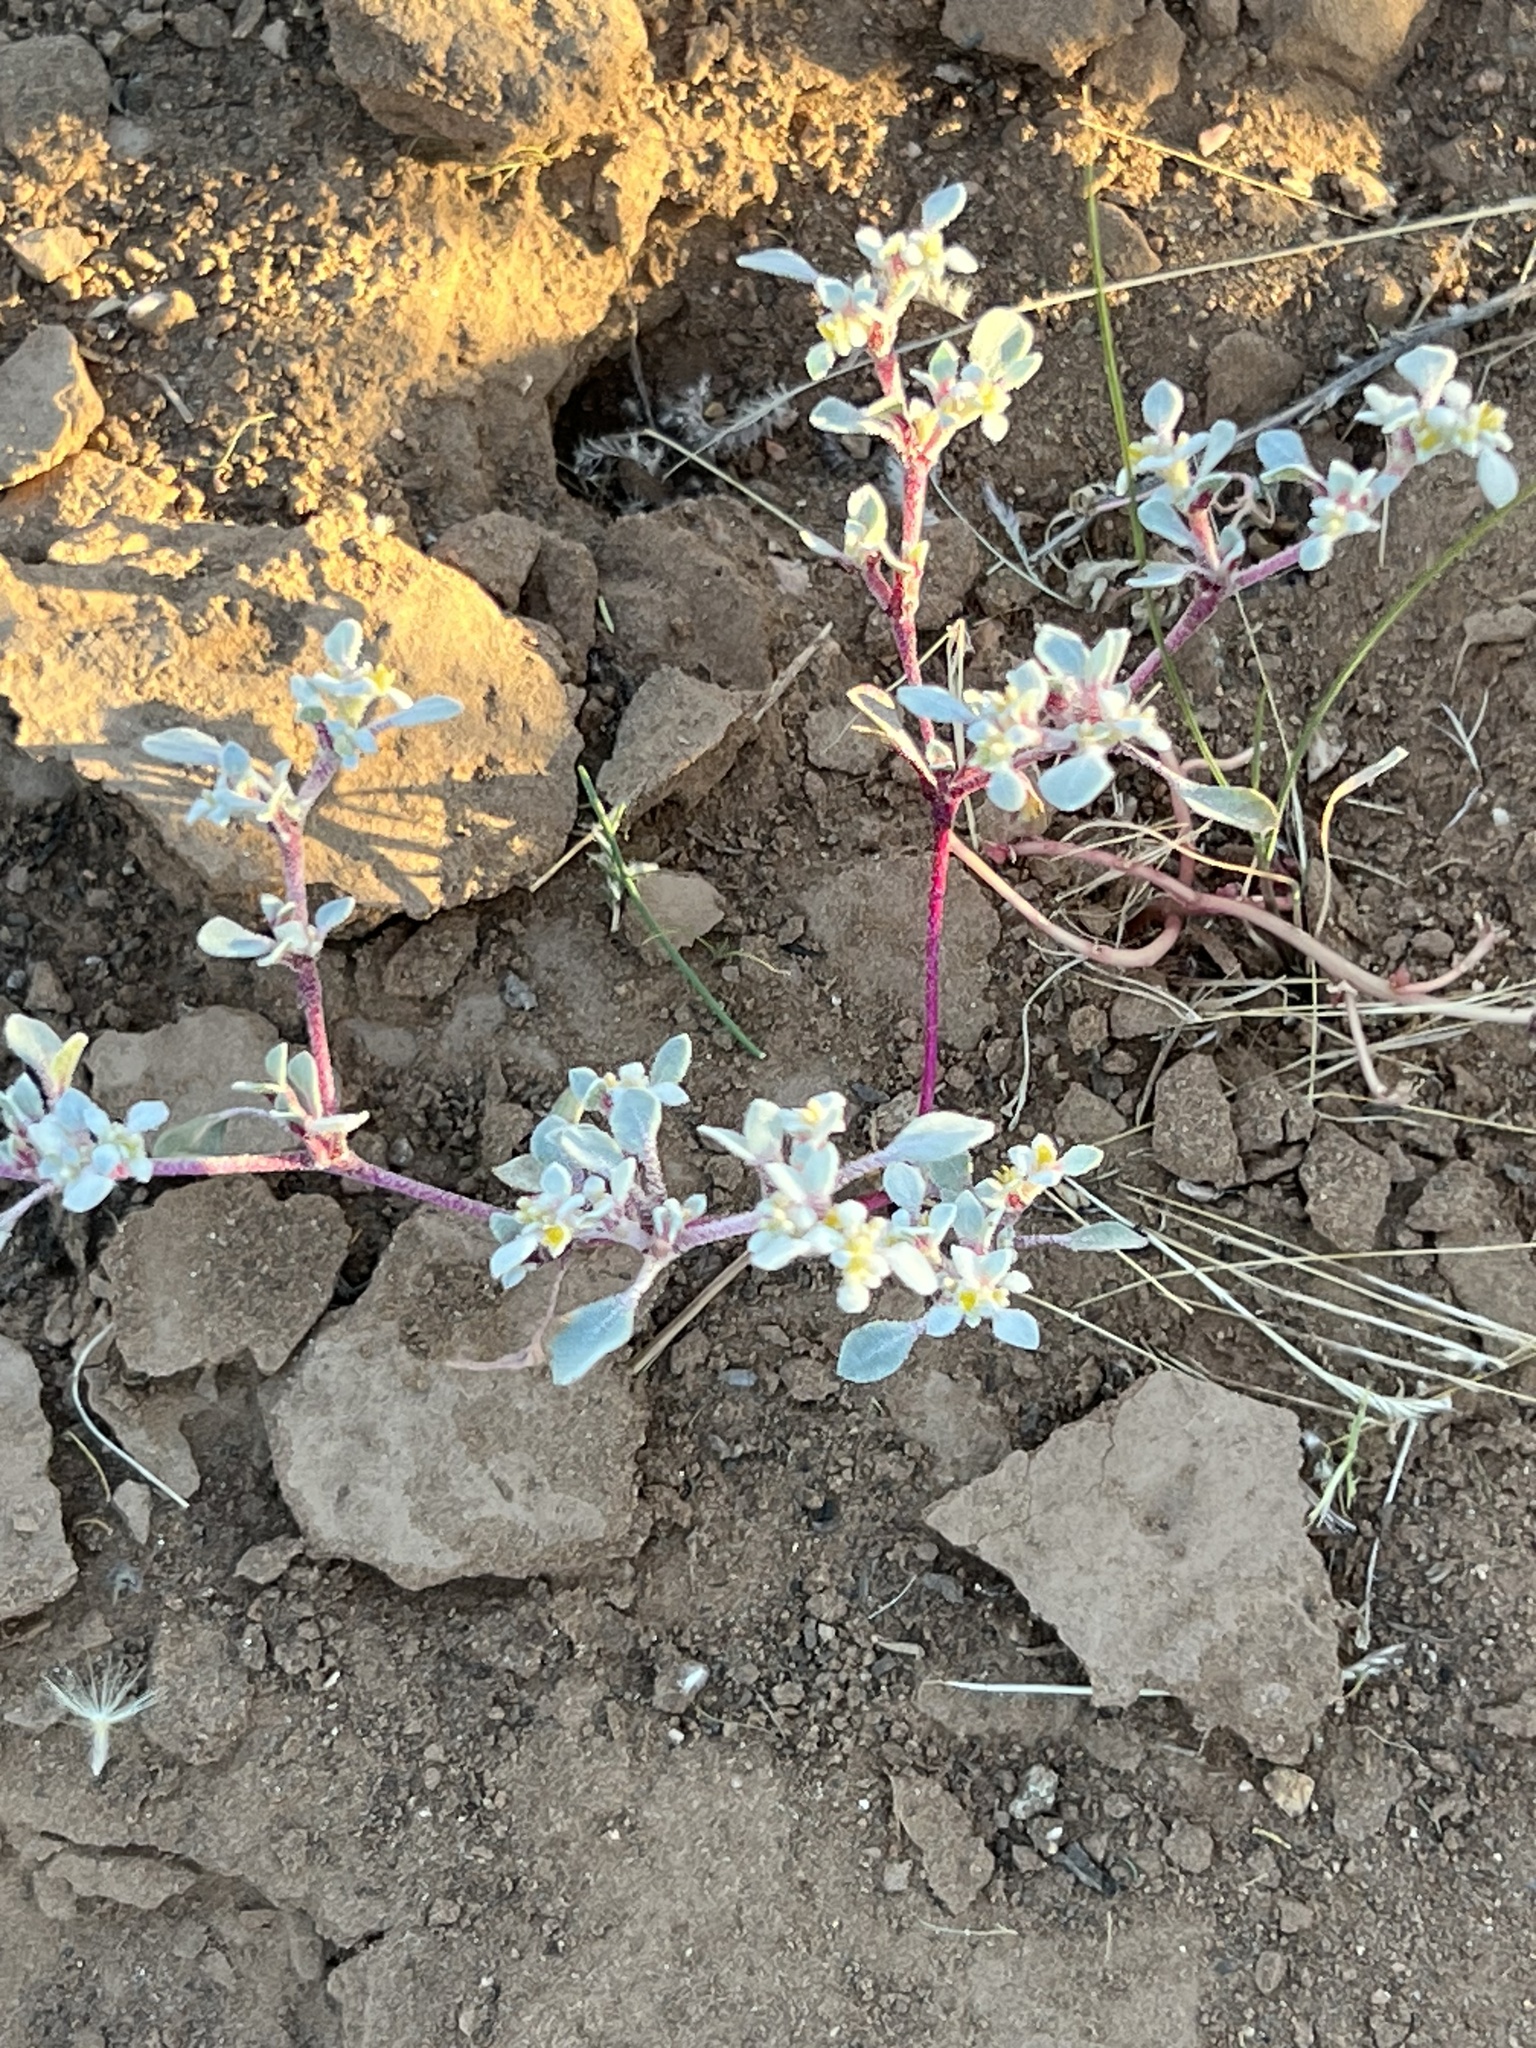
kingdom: Plantae
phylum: Tracheophyta
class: Magnoliopsida
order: Caryophyllales
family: Amaranthaceae
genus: Tidestromia
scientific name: Tidestromia lanuginosa
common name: Woolly tidestromia
